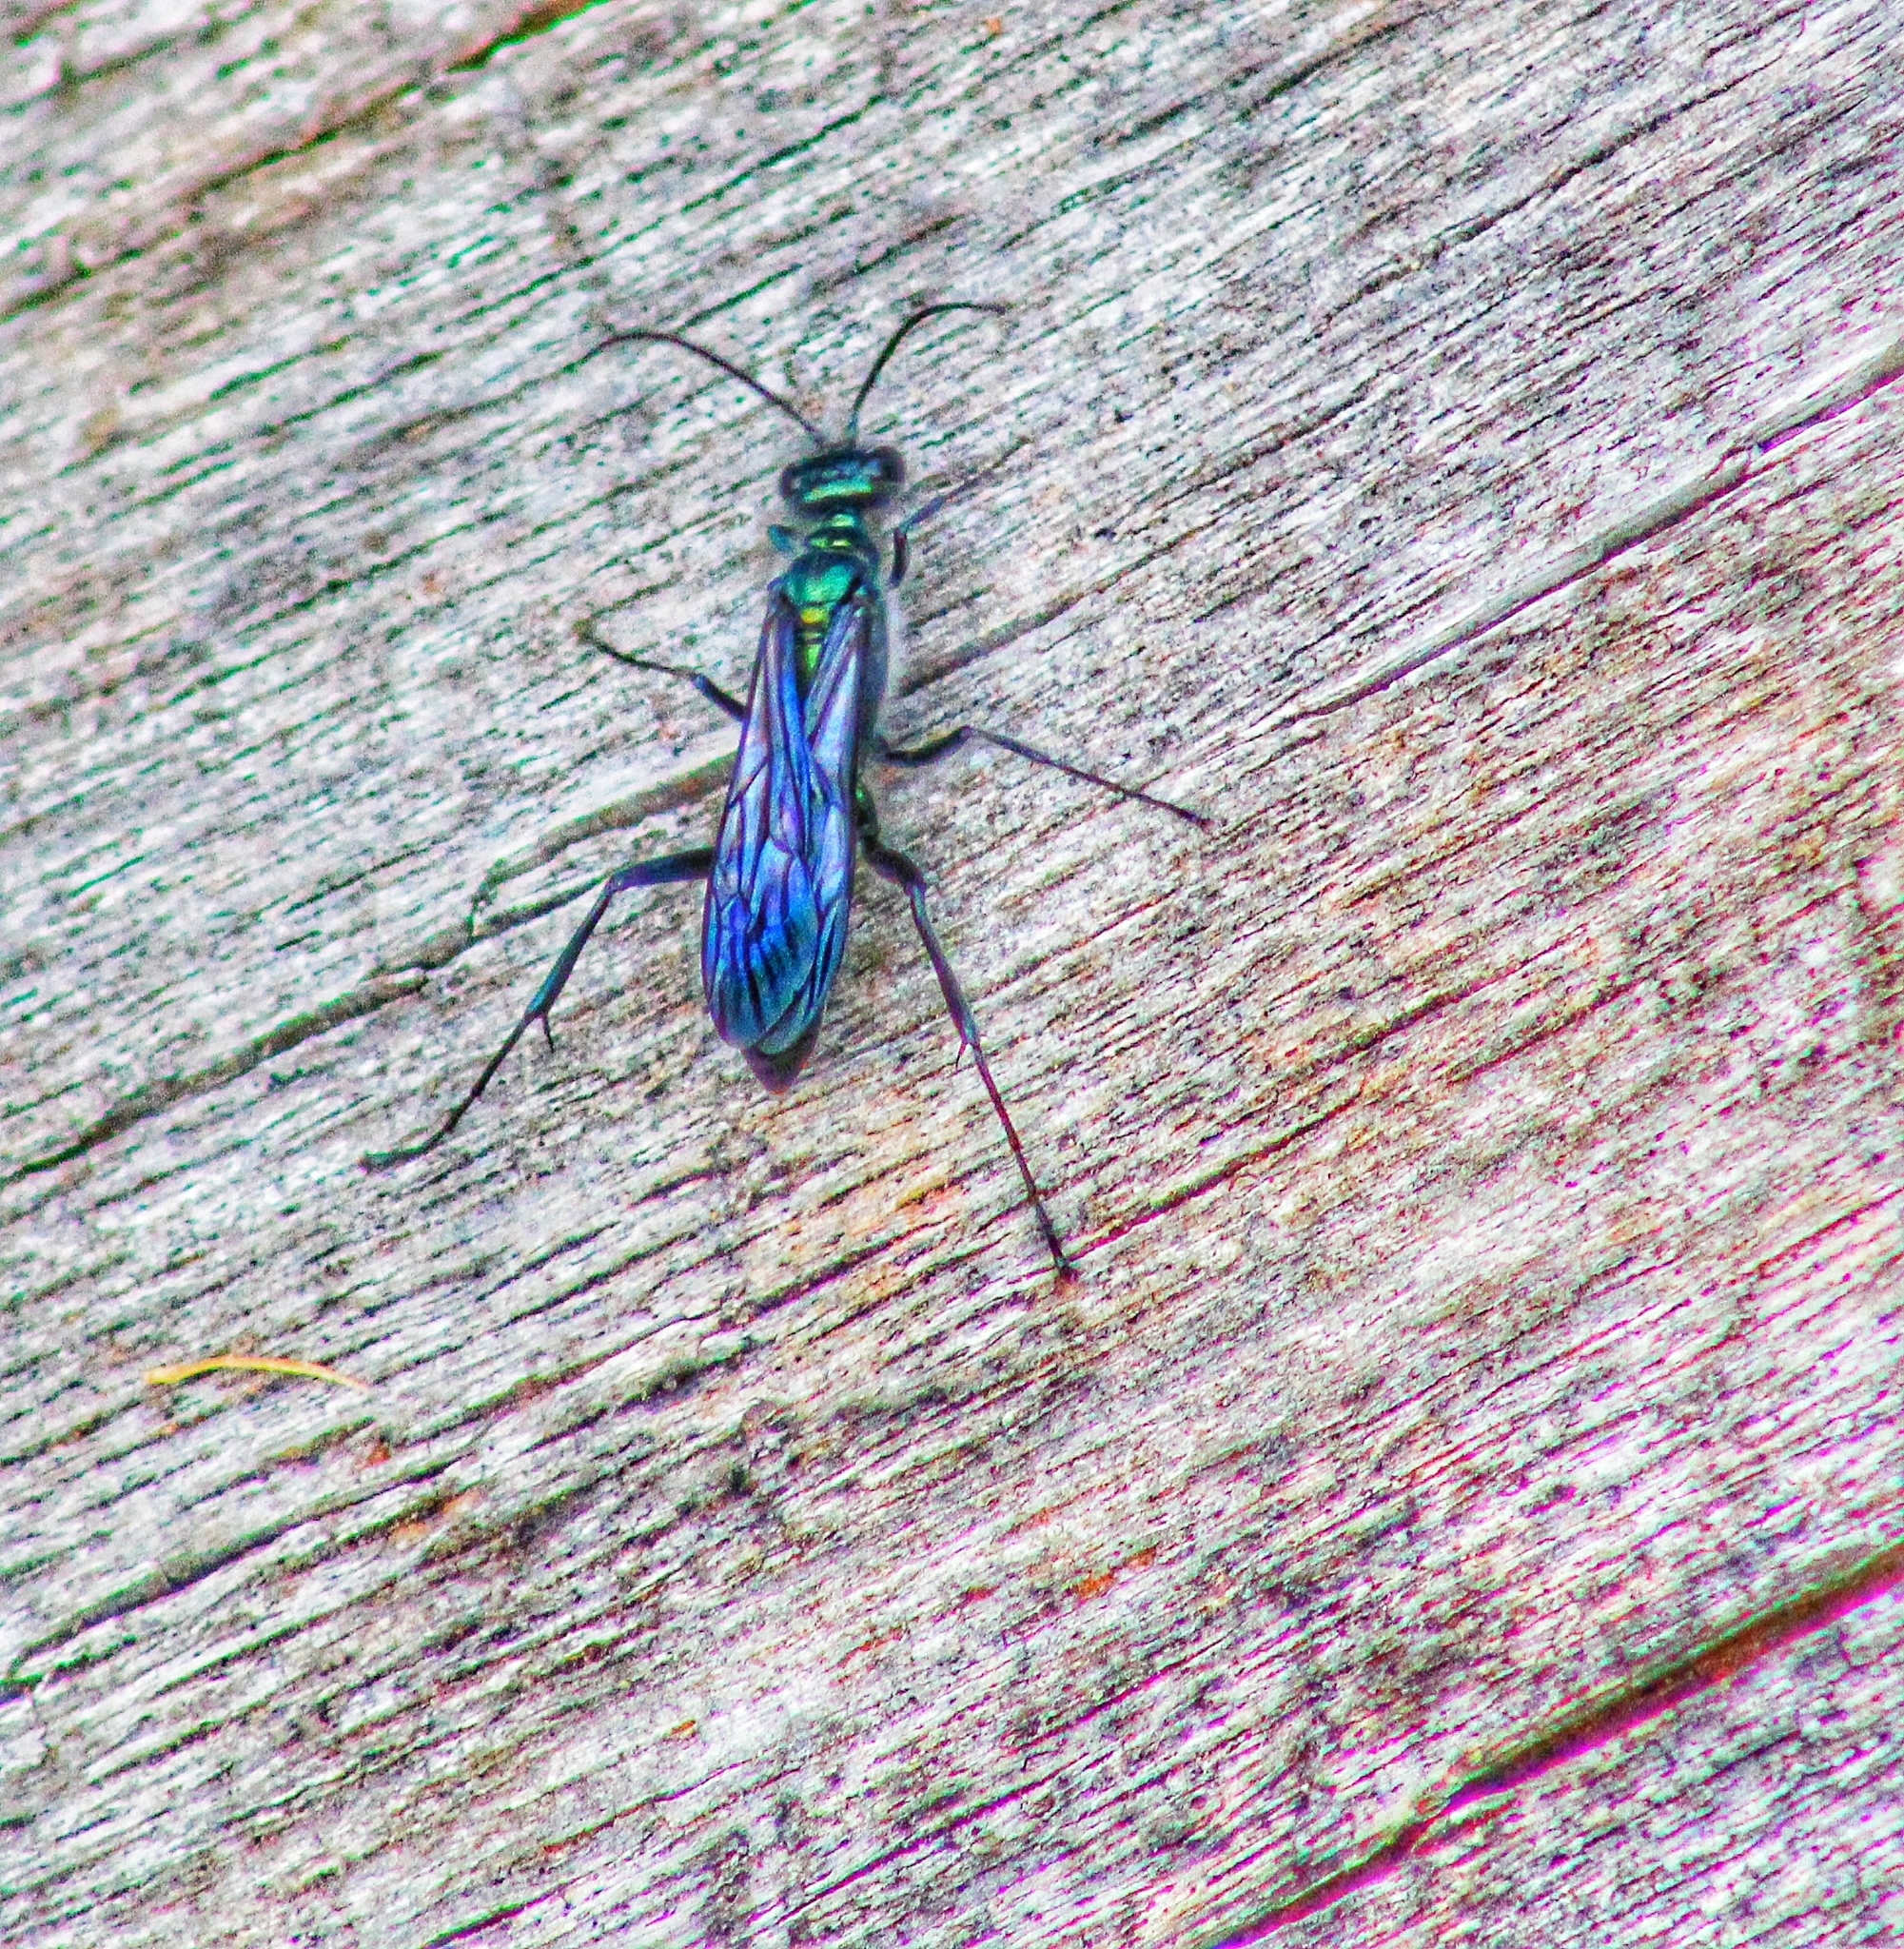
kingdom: Animalia
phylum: Arthropoda
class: Insecta
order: Hymenoptera
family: Sphecidae
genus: Chalybion
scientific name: Chalybion zimmermanni
